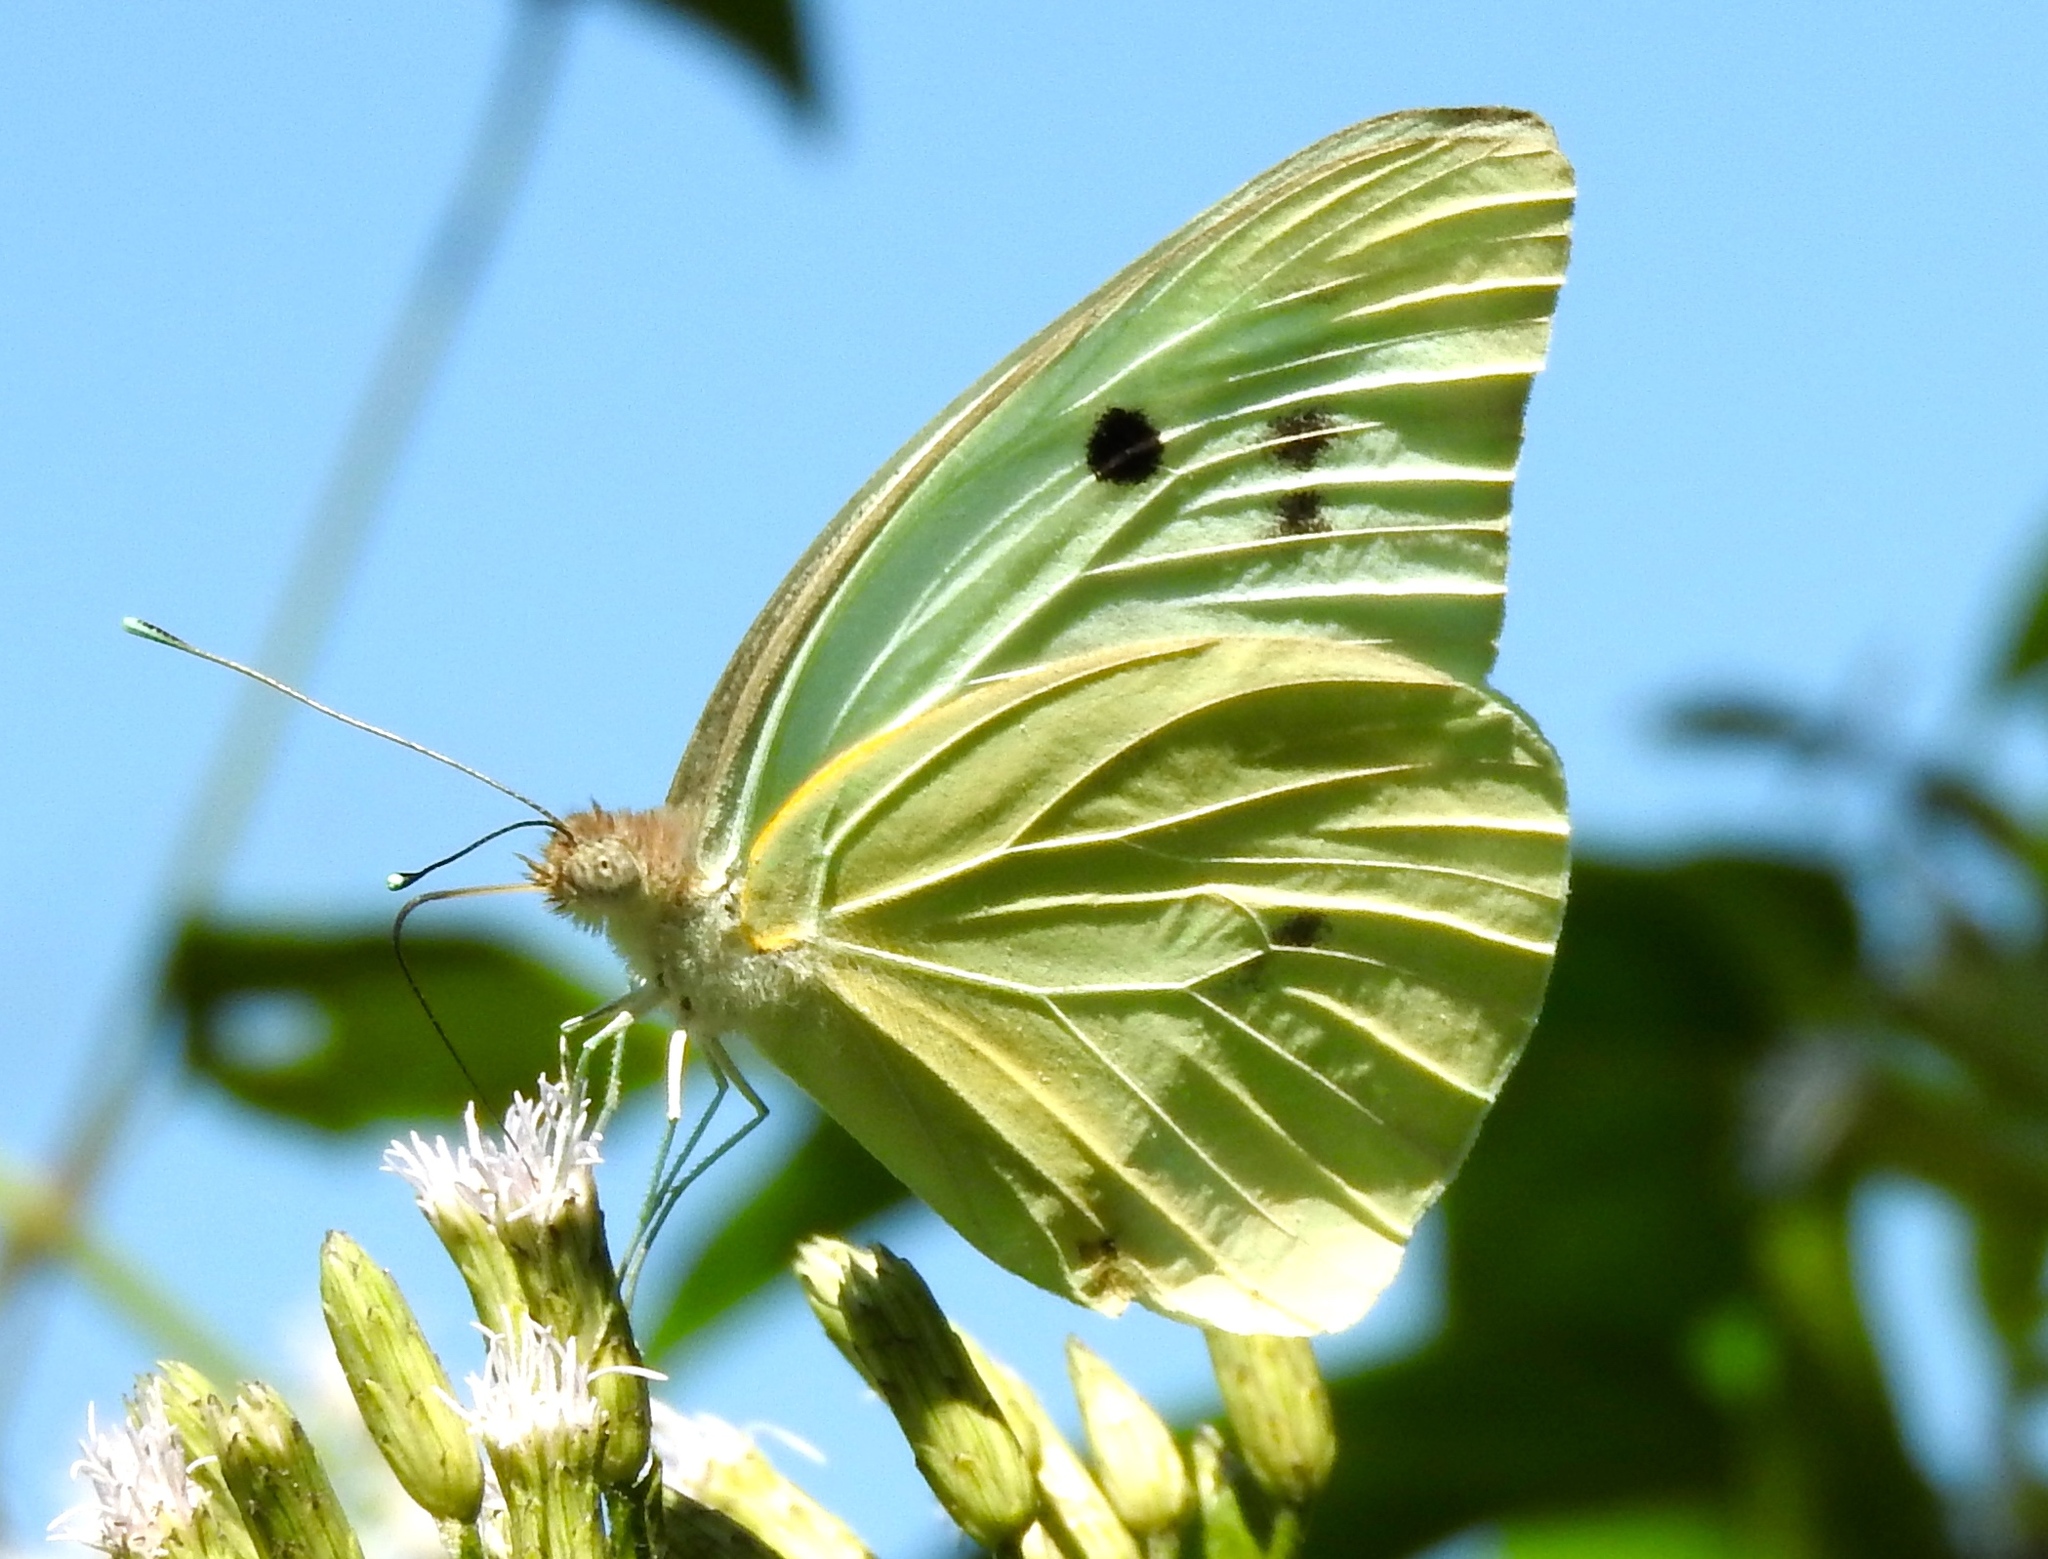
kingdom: Animalia
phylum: Arthropoda
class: Insecta
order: Lepidoptera
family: Pieridae
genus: Ganyra
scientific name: Ganyra josephina
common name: Giant white
